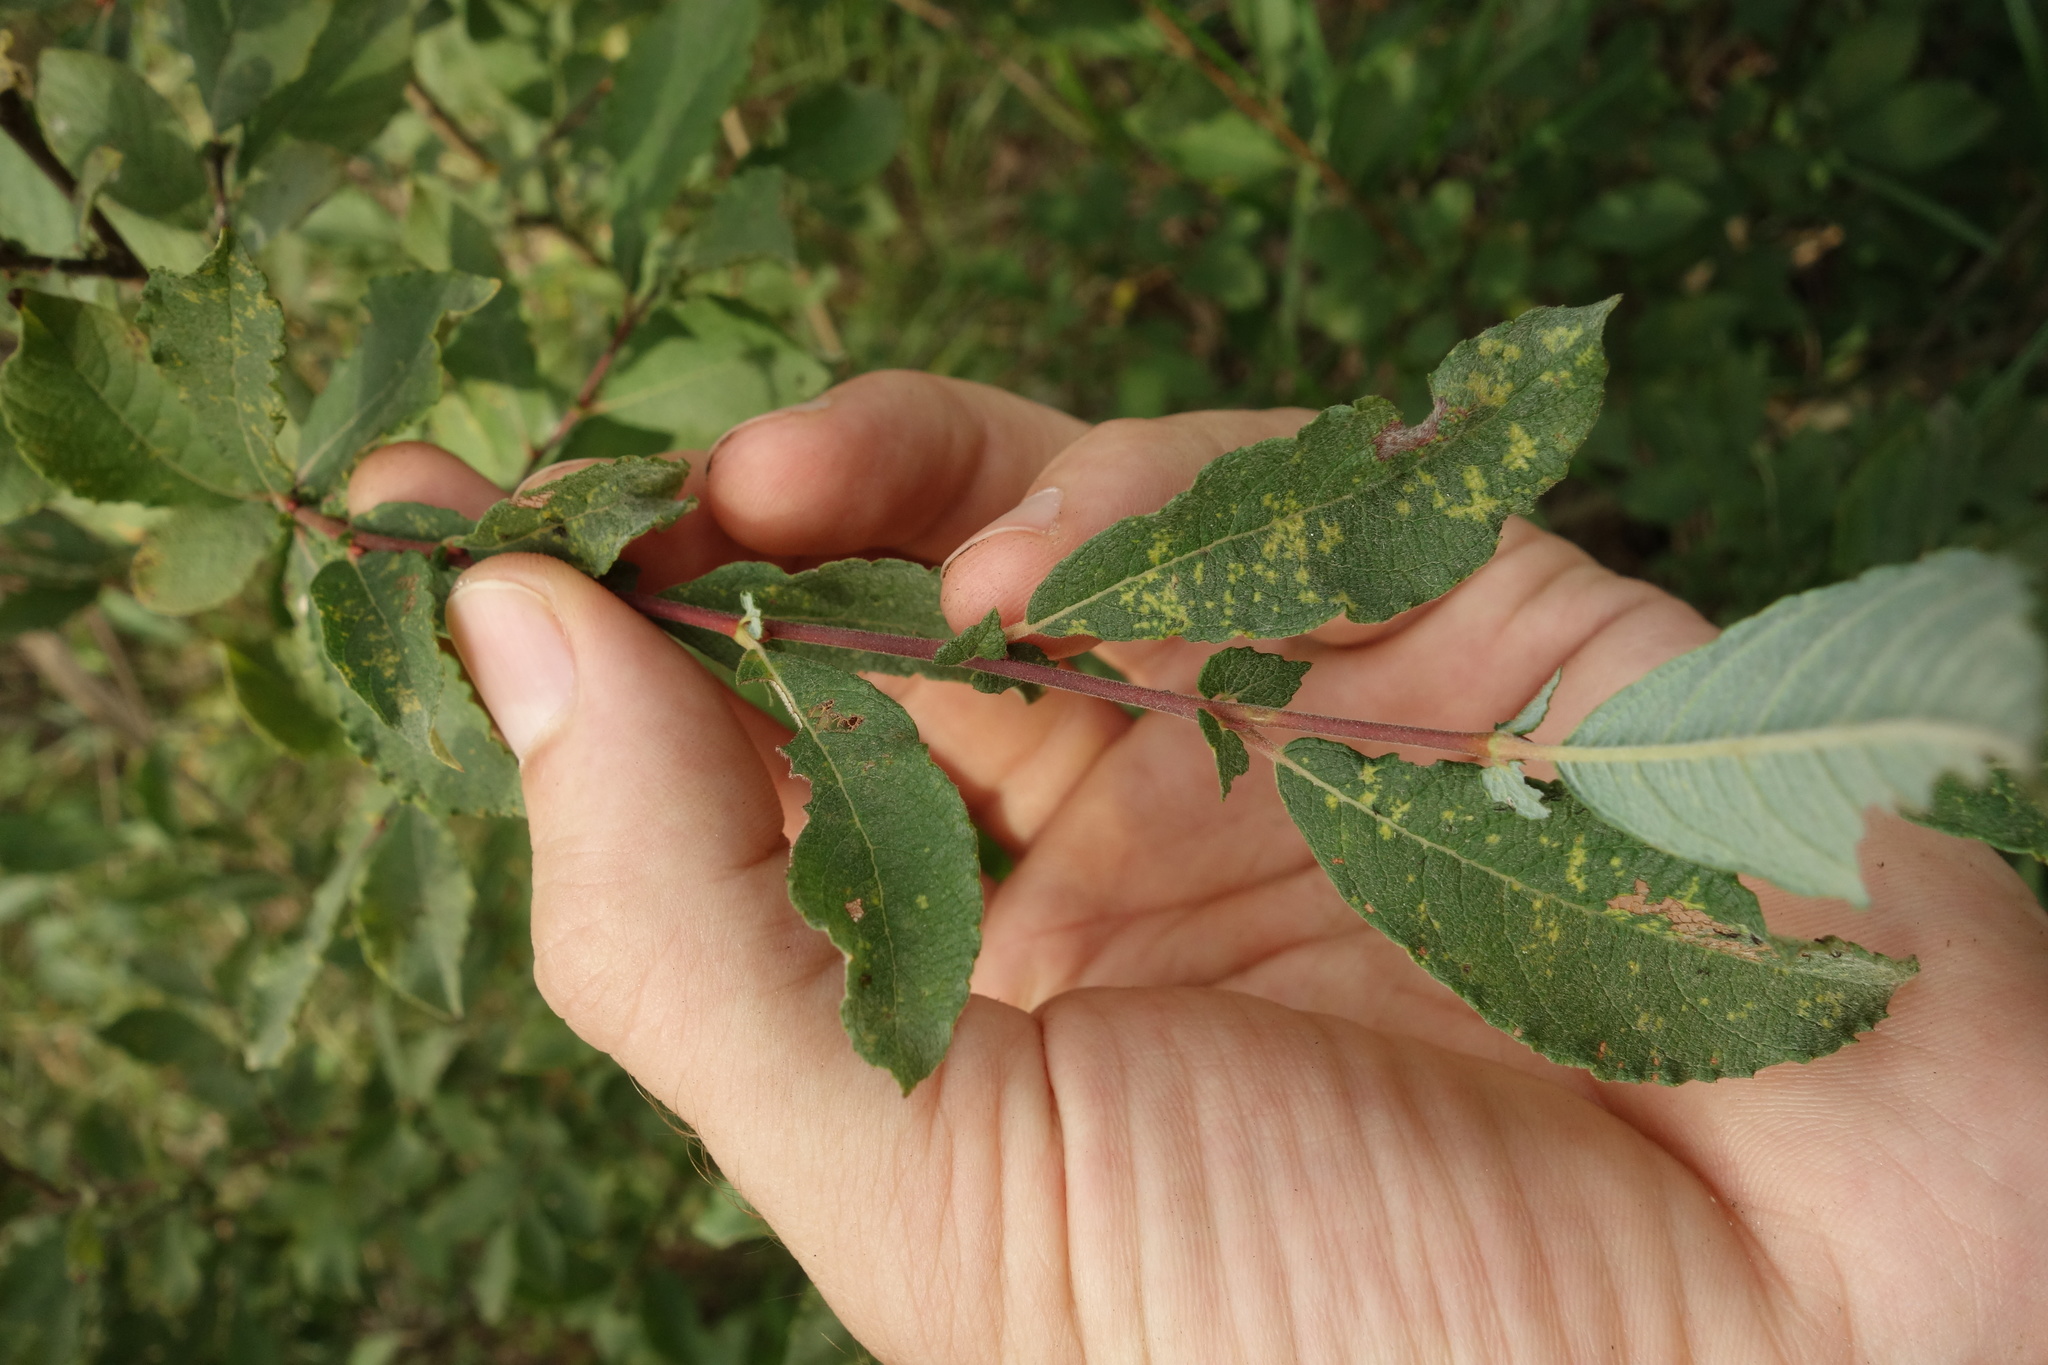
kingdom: Plantae
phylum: Tracheophyta
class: Magnoliopsida
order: Malpighiales
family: Salicaceae
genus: Salix
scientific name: Salix cinerea
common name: Common sallow
